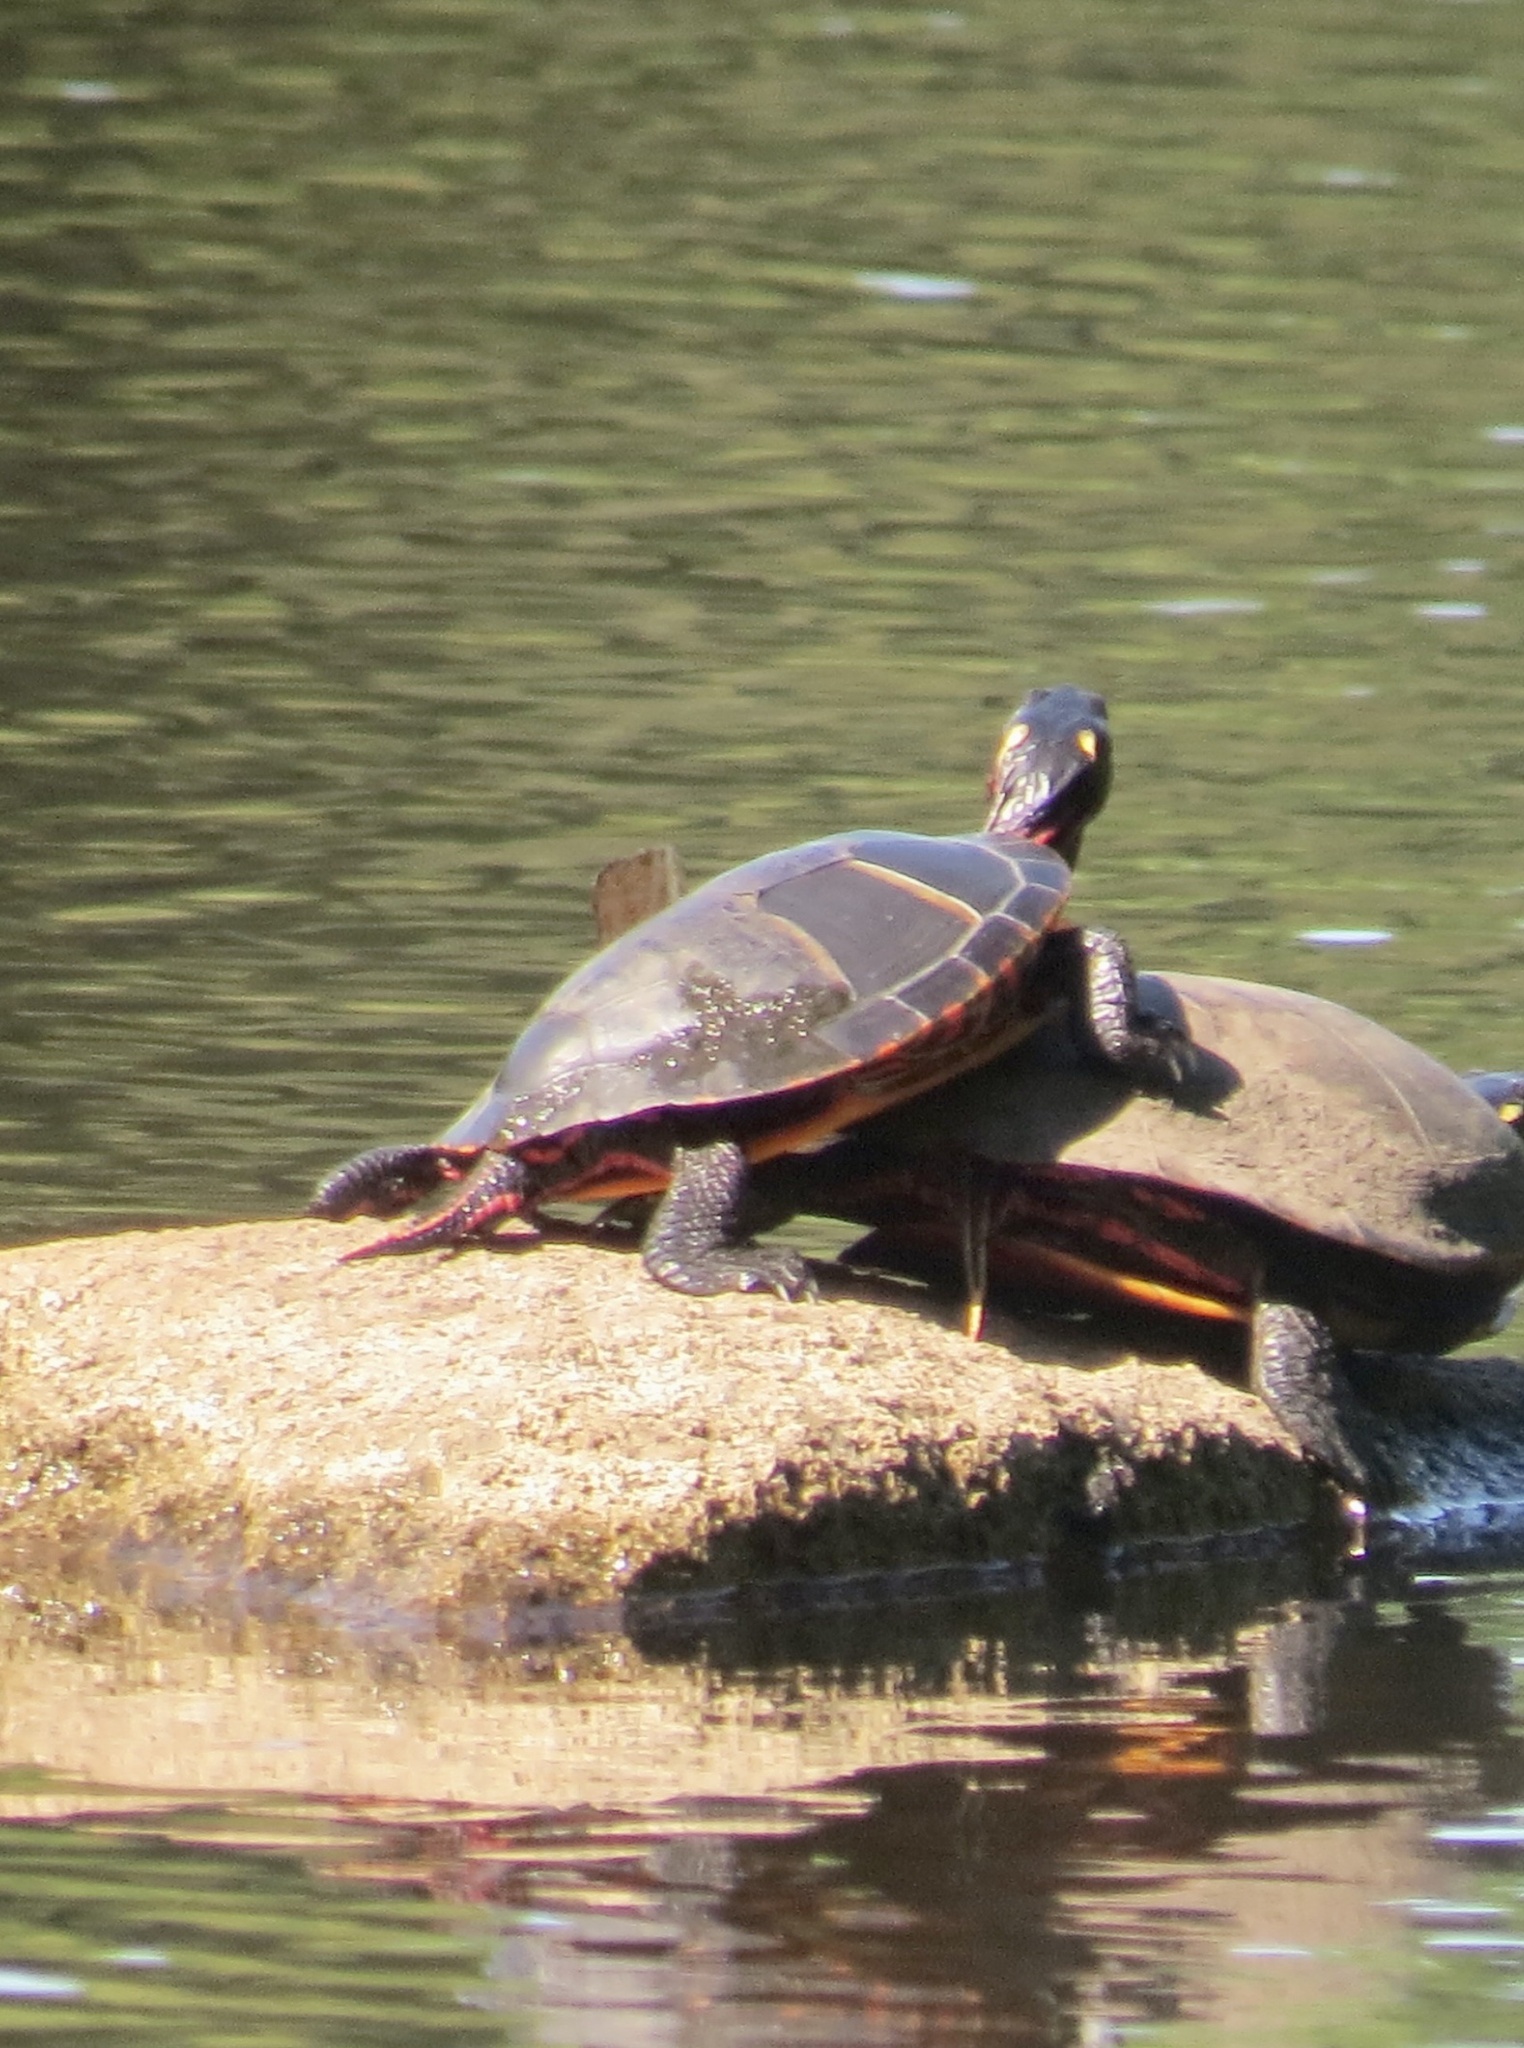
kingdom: Animalia
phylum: Chordata
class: Testudines
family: Emydidae
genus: Chrysemys
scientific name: Chrysemys picta
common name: Painted turtle
